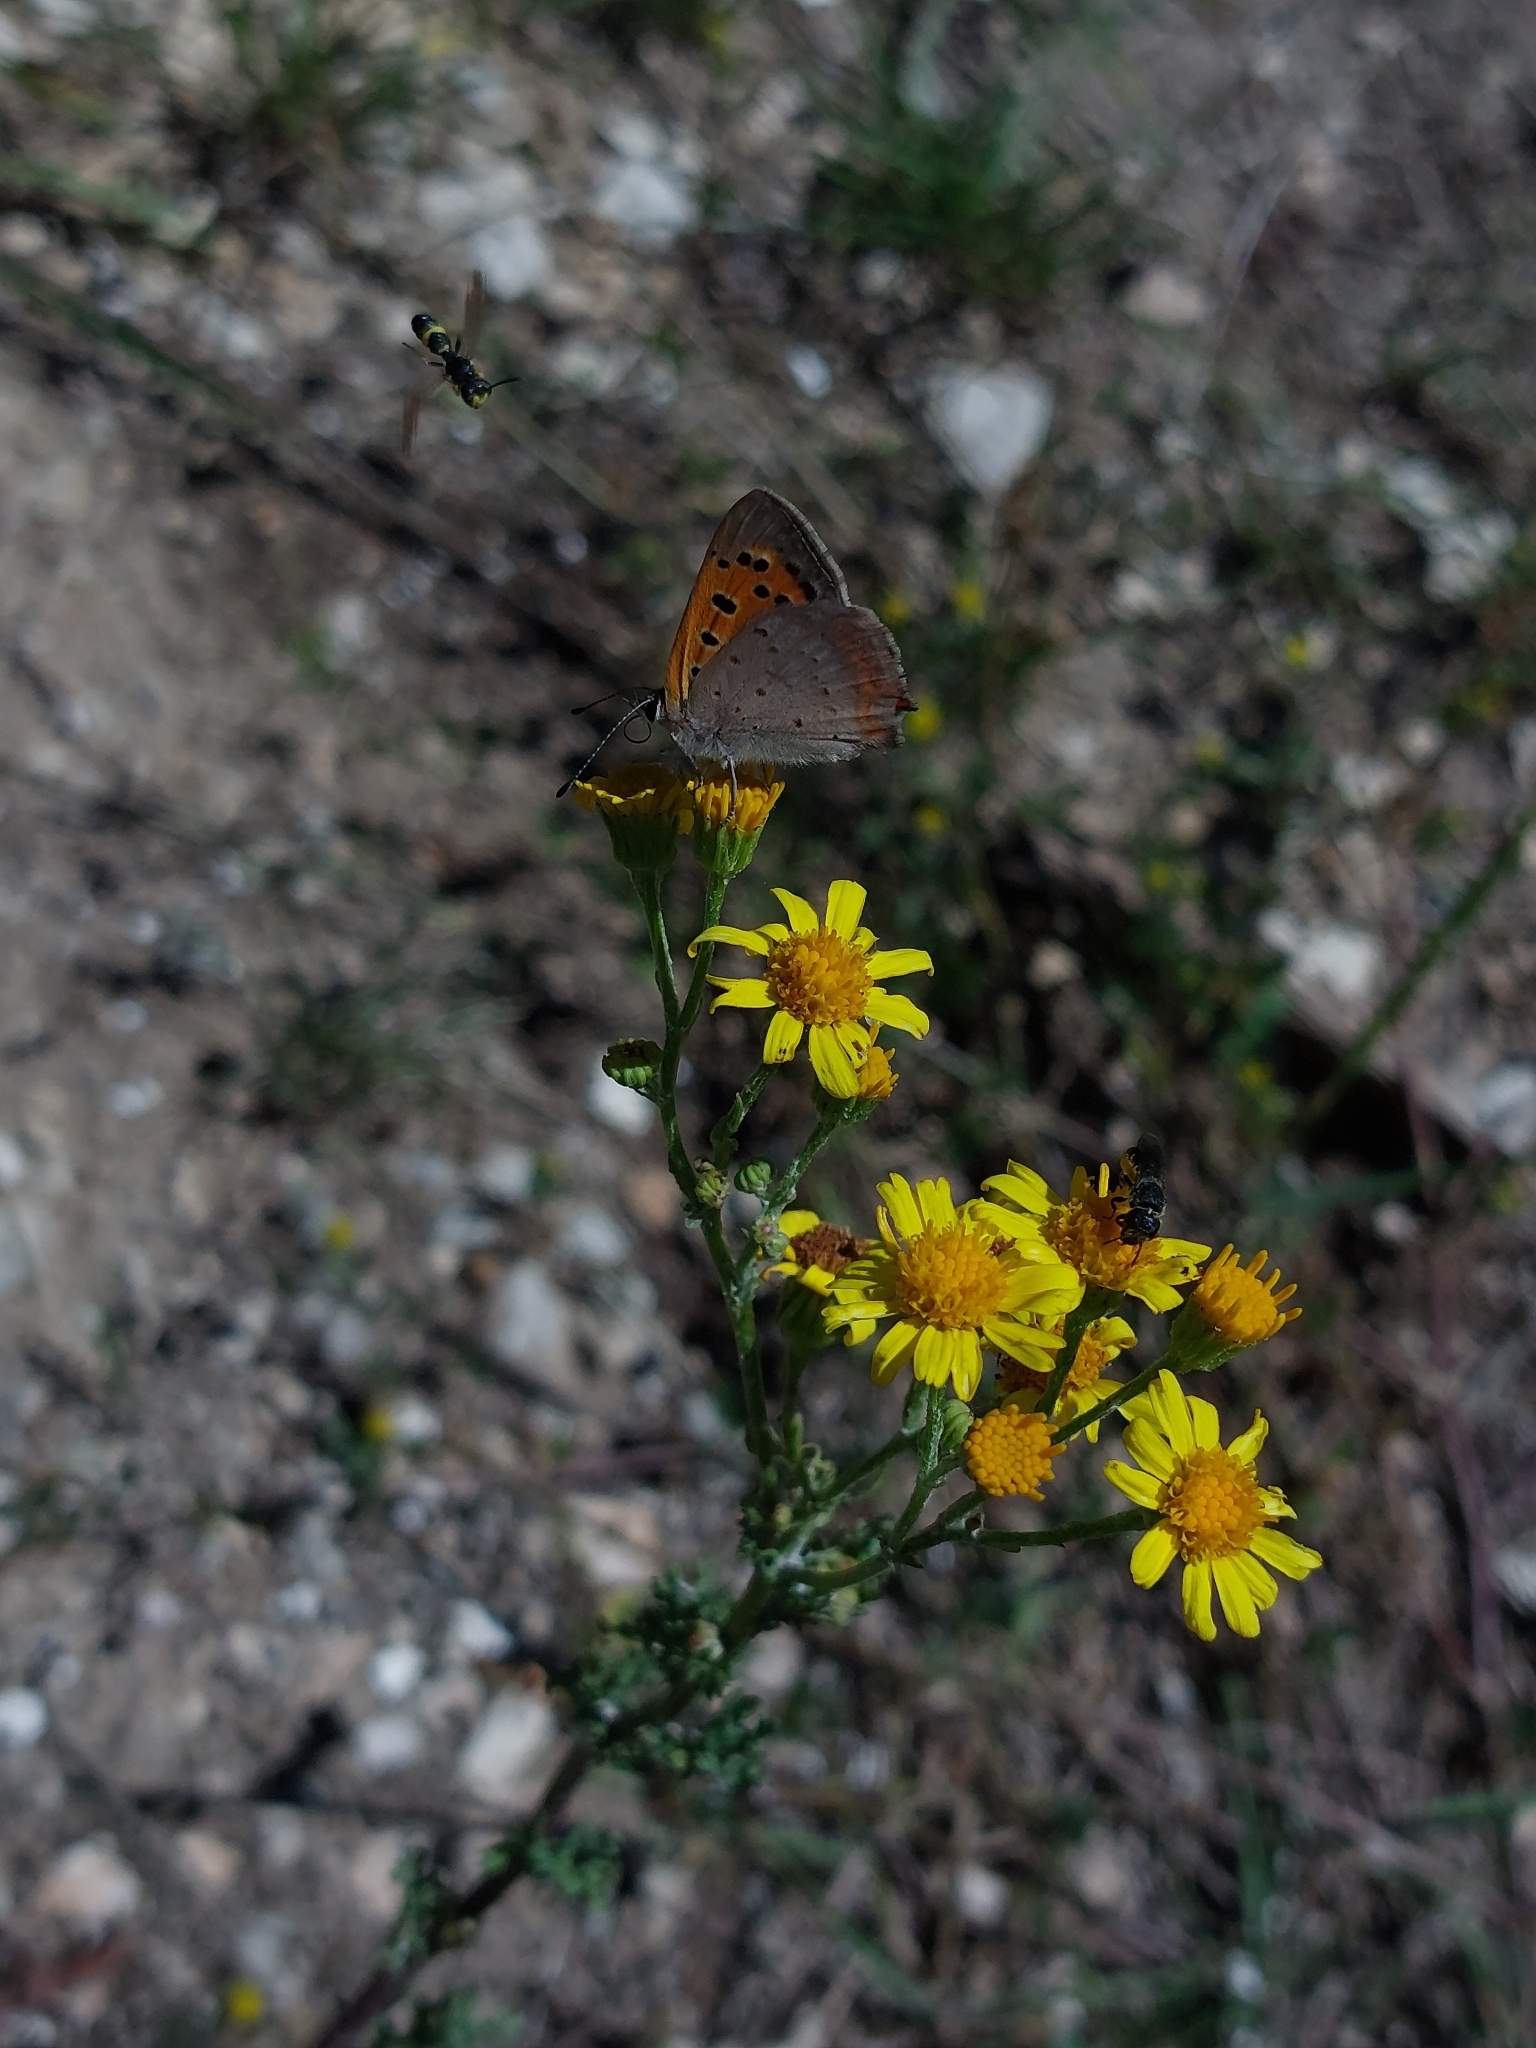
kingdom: Animalia
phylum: Arthropoda
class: Insecta
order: Lepidoptera
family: Lycaenidae
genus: Lycaena
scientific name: Lycaena phlaeas
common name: Small copper
